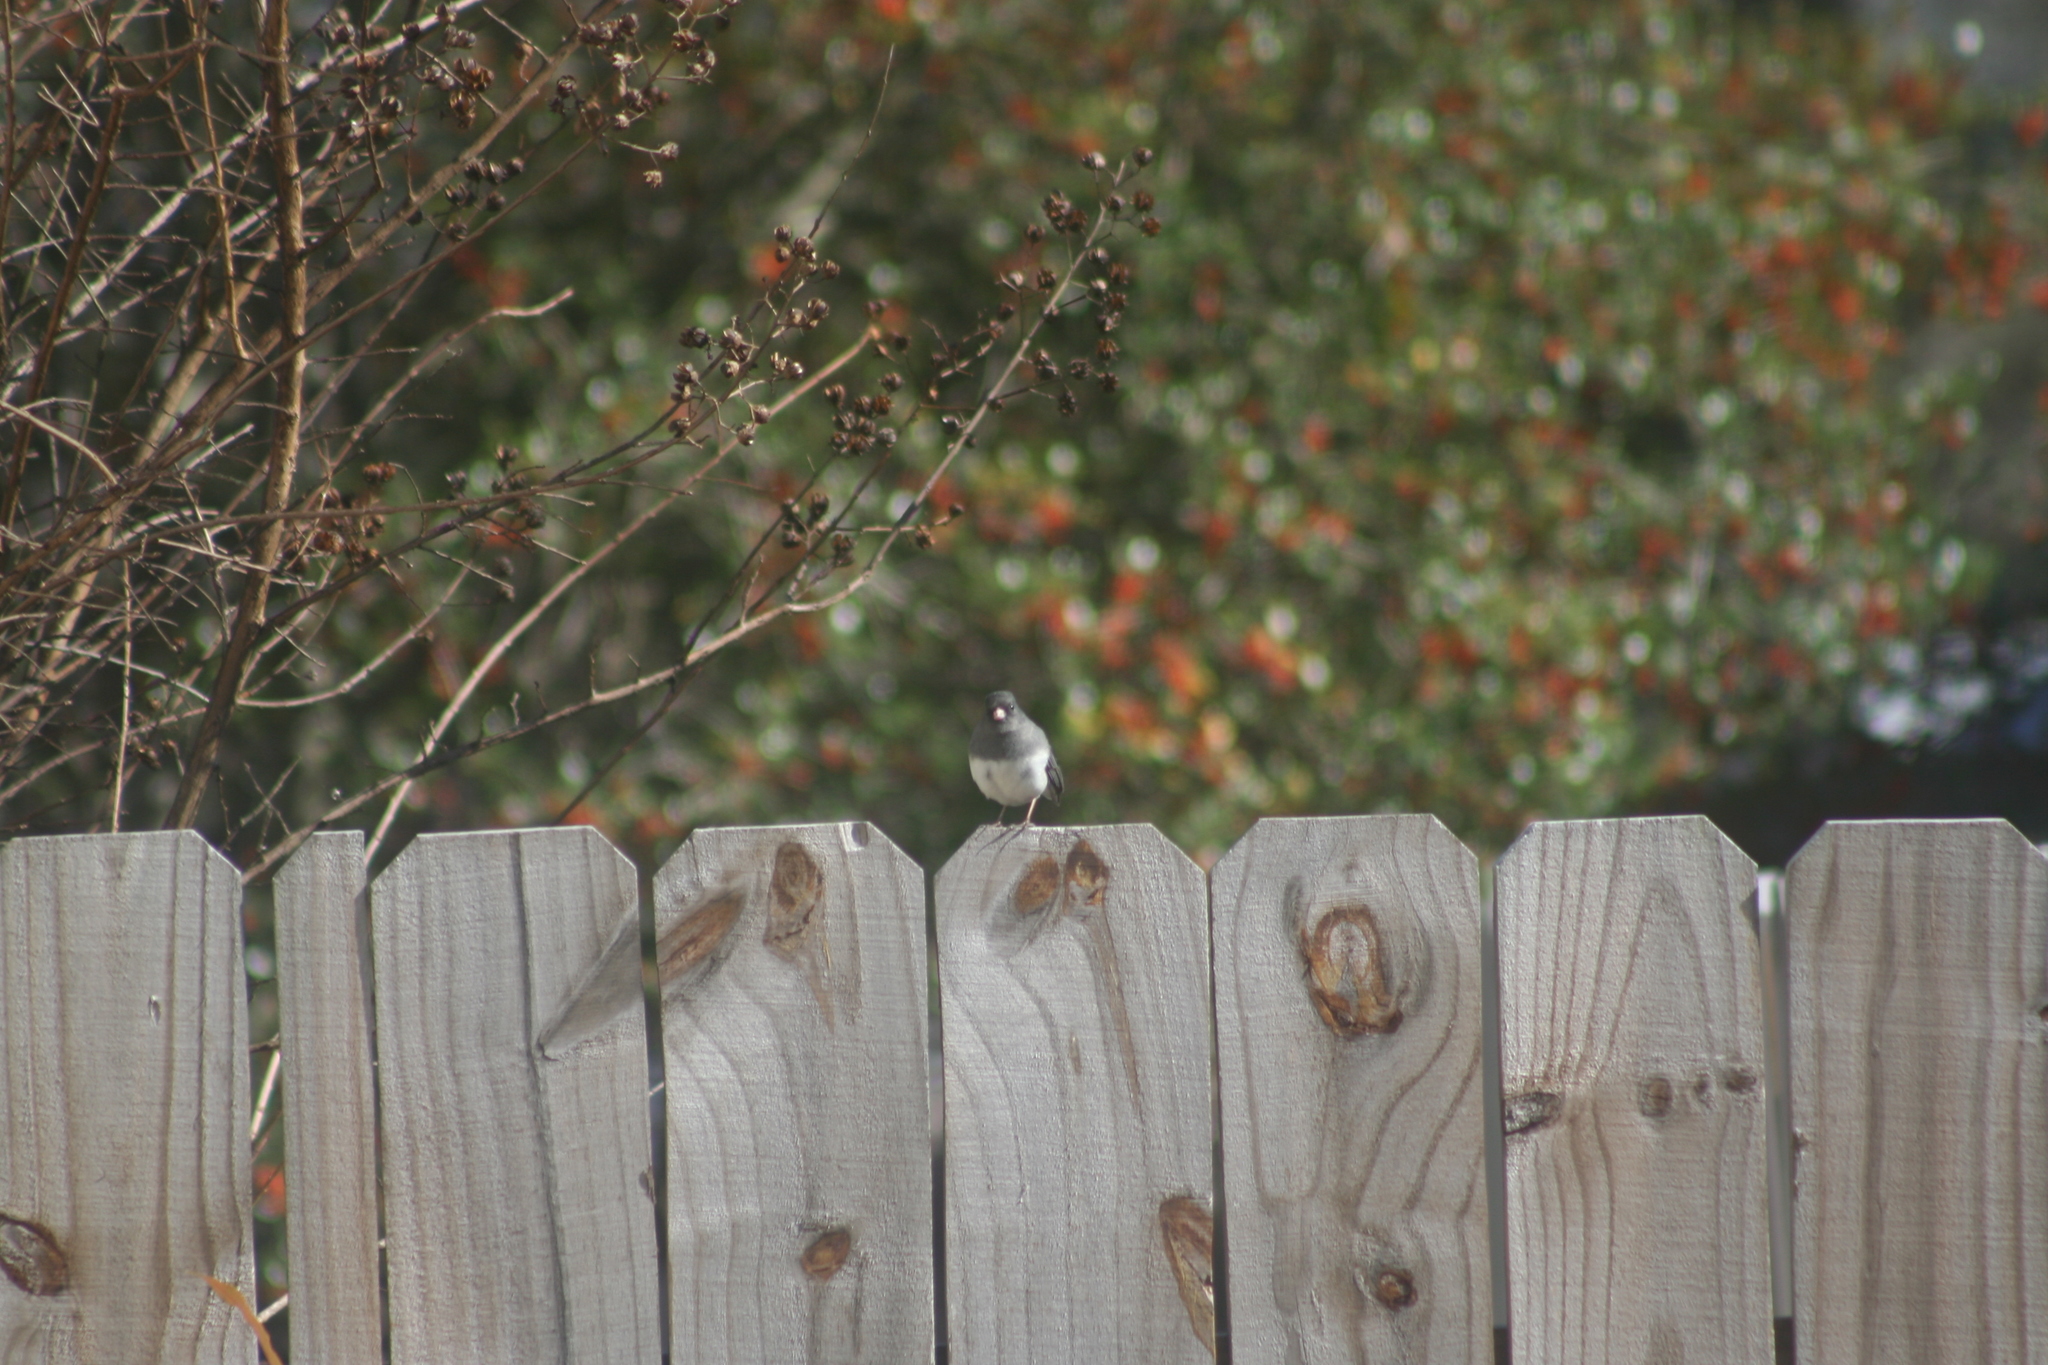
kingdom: Animalia
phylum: Chordata
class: Aves
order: Passeriformes
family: Passerellidae
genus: Junco
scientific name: Junco hyemalis
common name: Dark-eyed junco
